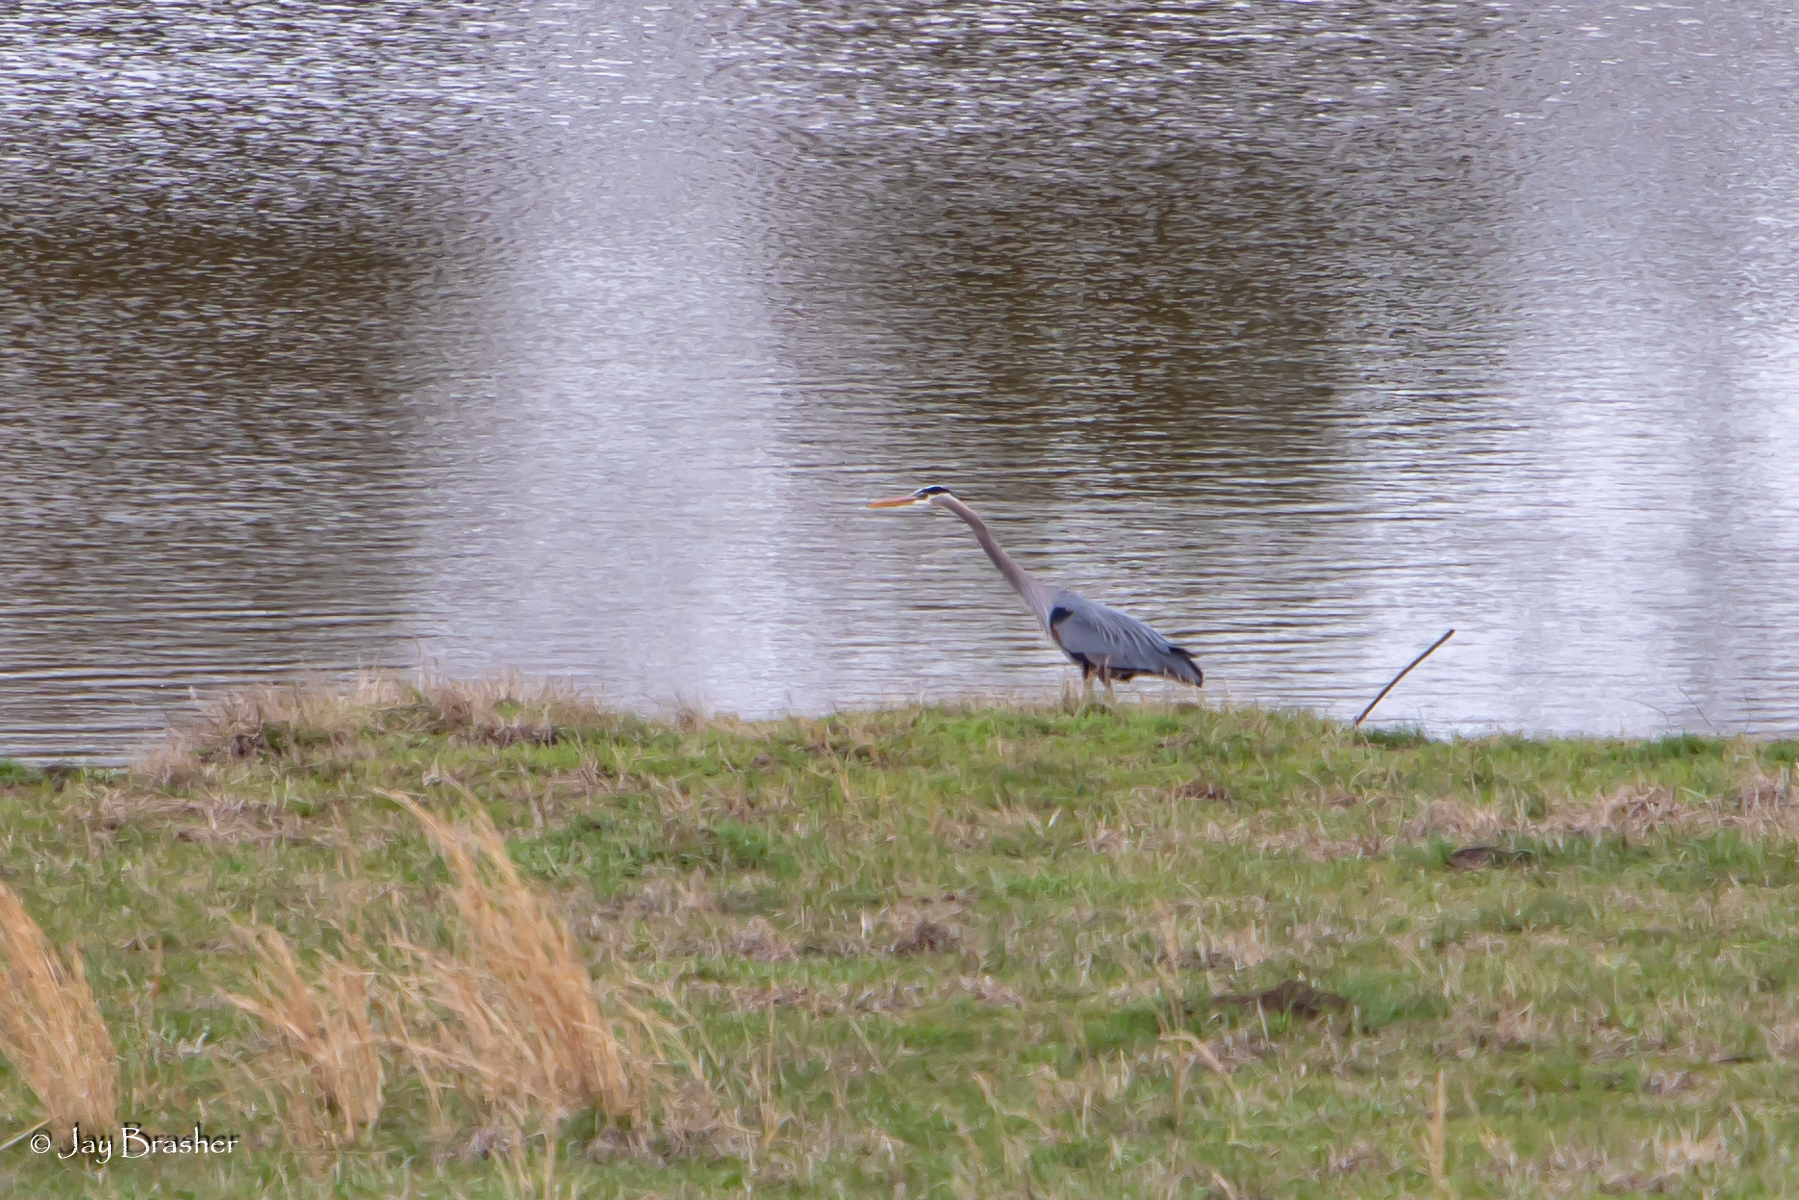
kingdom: Animalia
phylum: Chordata
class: Aves
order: Pelecaniformes
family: Ardeidae
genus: Ardea
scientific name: Ardea herodias
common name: Great blue heron
